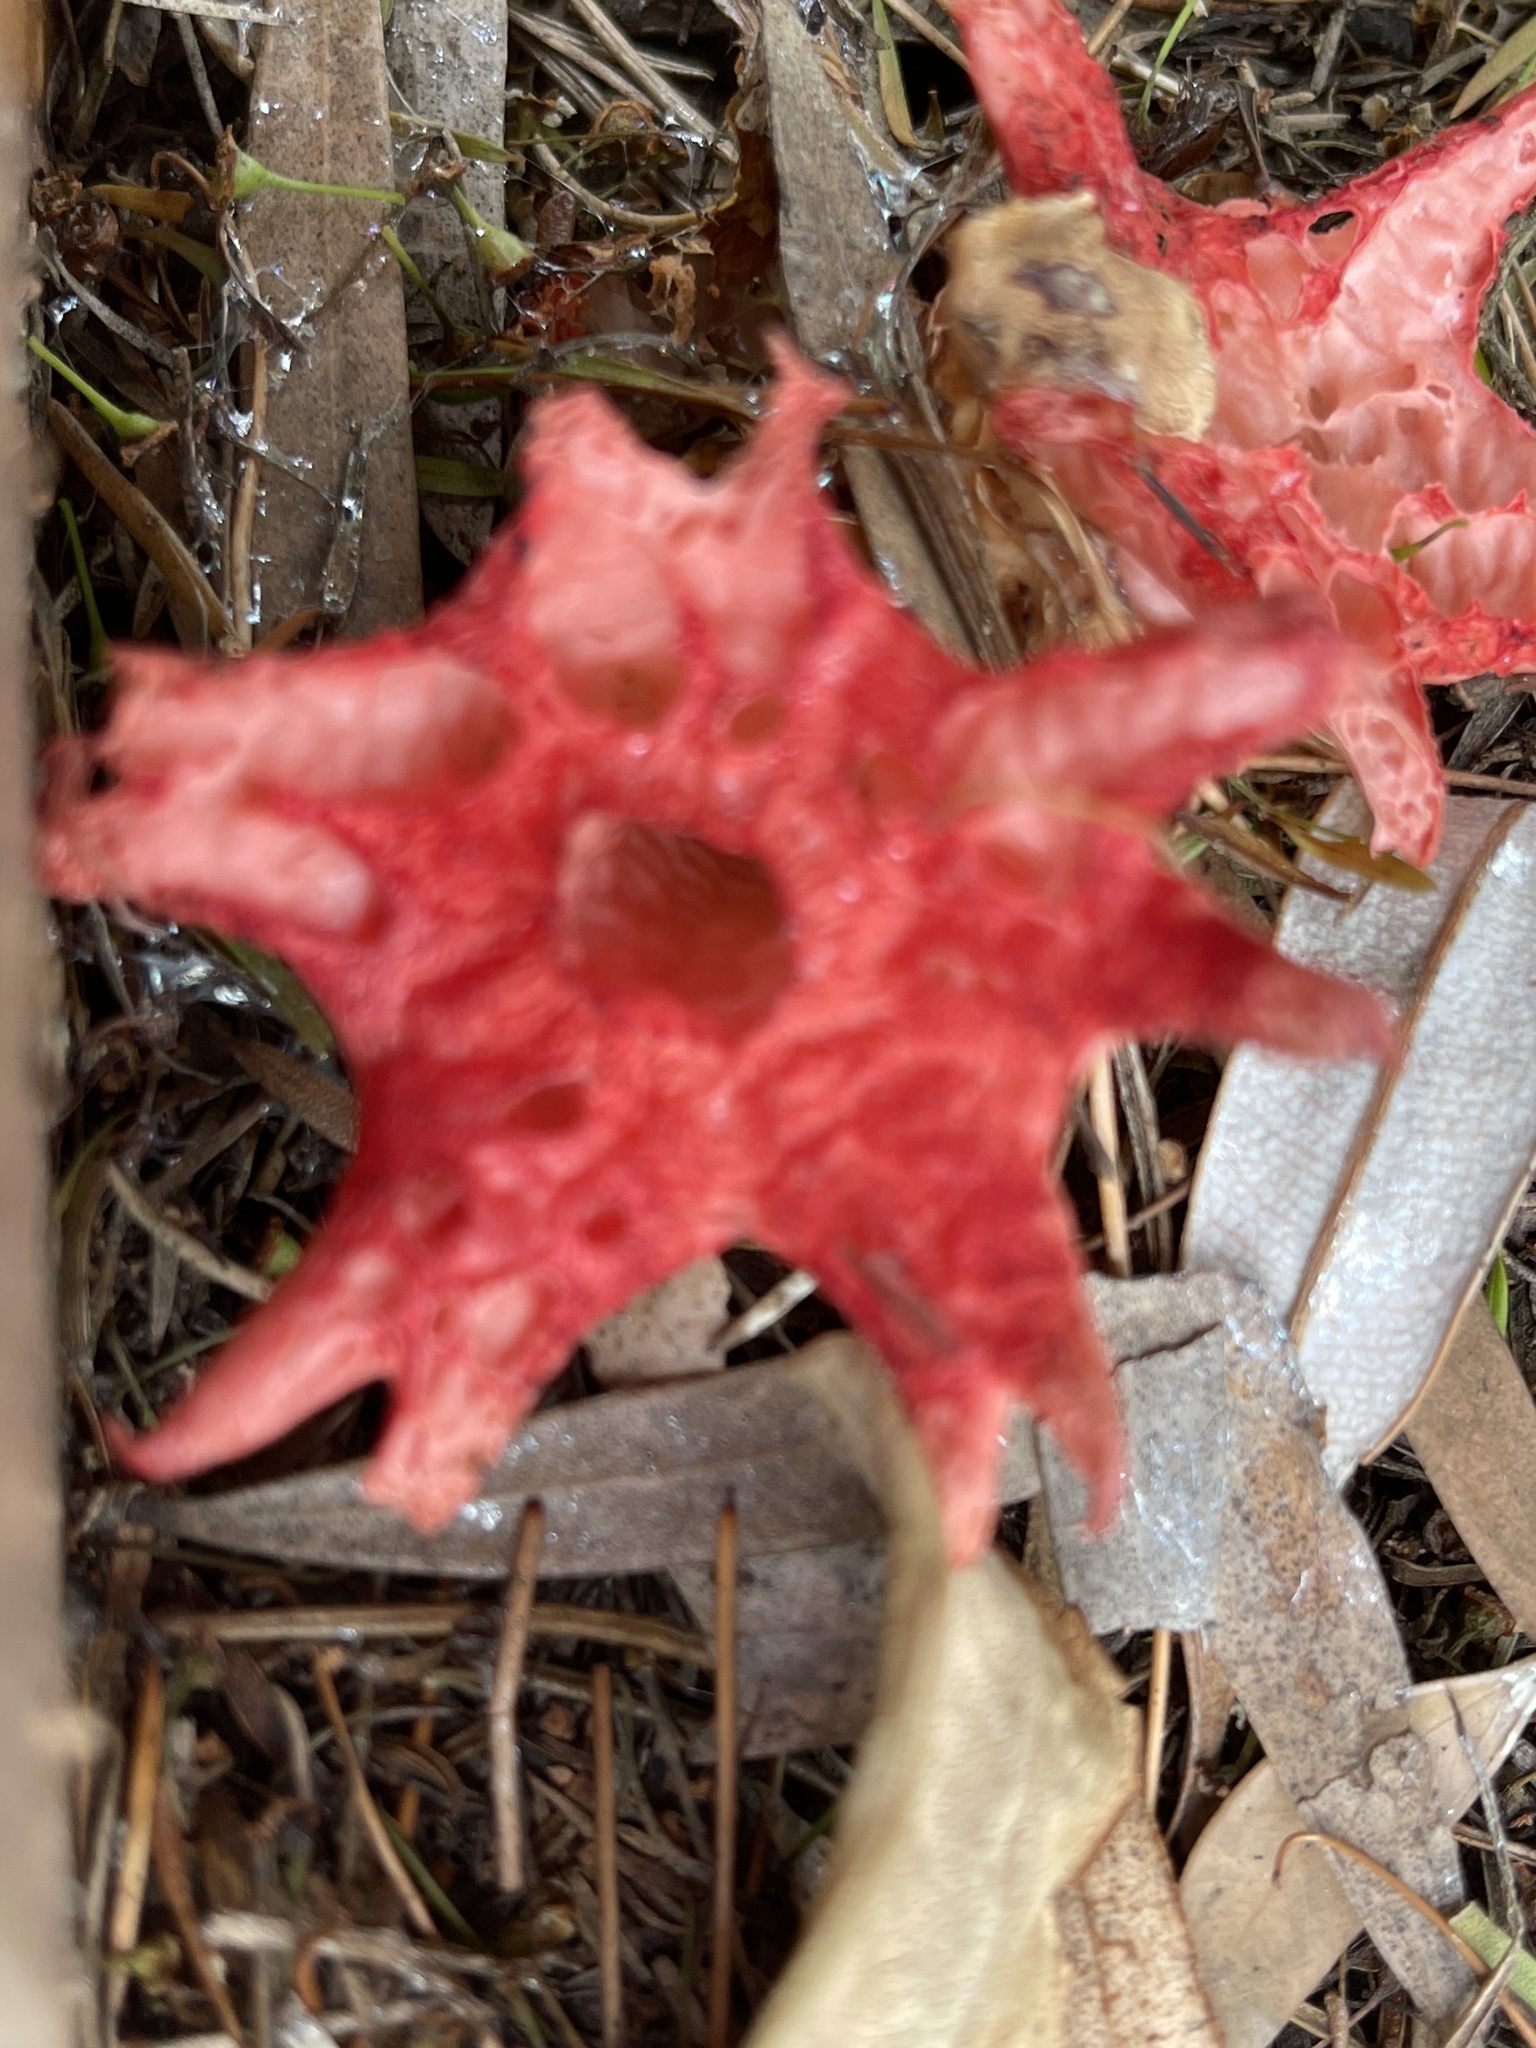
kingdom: Fungi
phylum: Basidiomycota
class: Agaricomycetes
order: Phallales
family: Phallaceae
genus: Aseroe
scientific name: Aseroe rubra
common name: Starfish fungus
